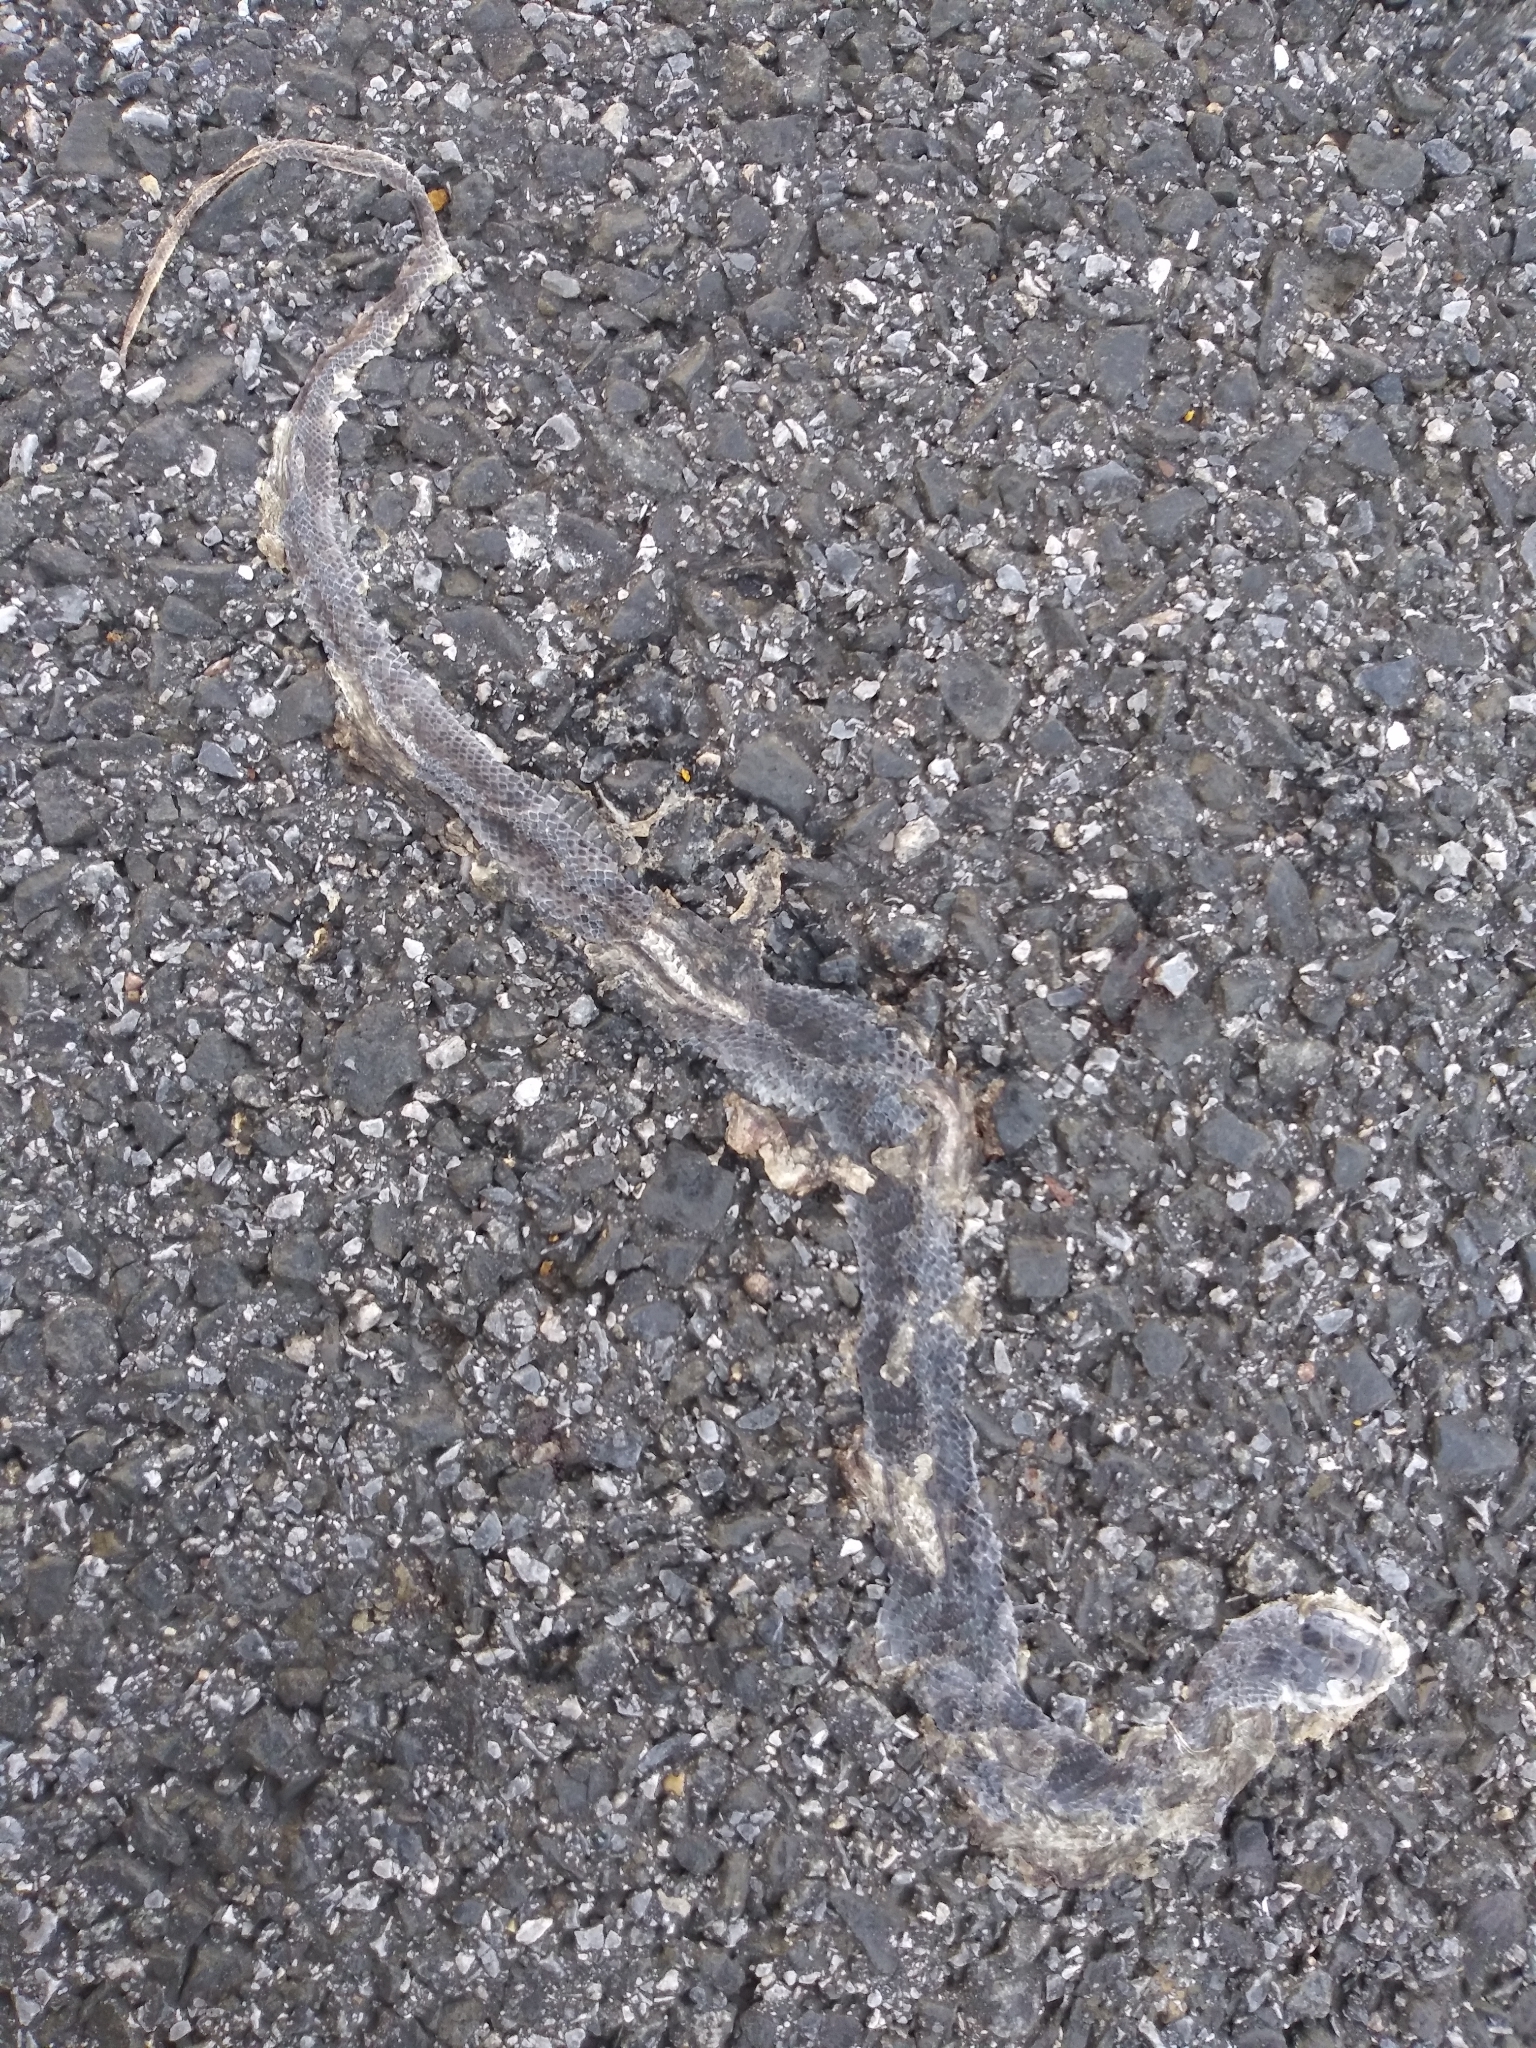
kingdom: Animalia
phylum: Chordata
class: Squamata
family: Colubridae
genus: Coluber
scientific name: Coluber constrictor
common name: Eastern racer
